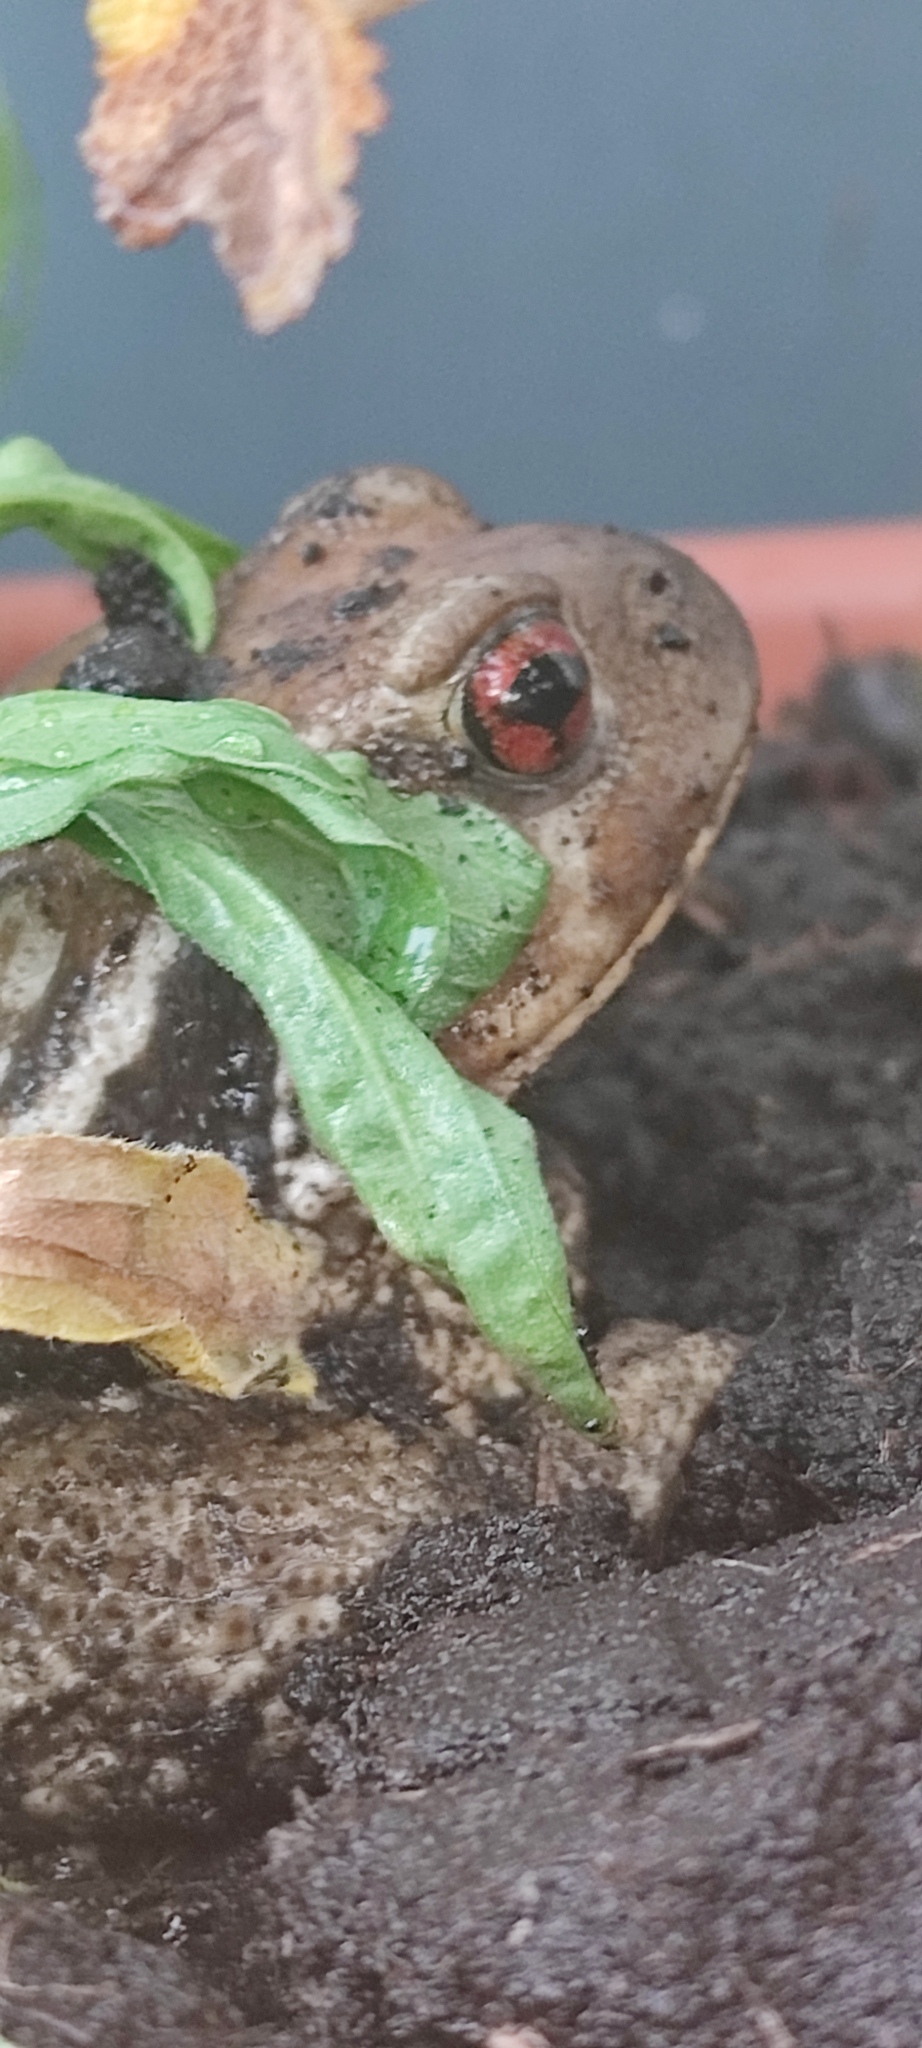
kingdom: Animalia
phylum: Chordata
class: Amphibia
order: Anura
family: Bufonidae
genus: Bufo
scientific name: Bufo spinosus
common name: Western common toad
